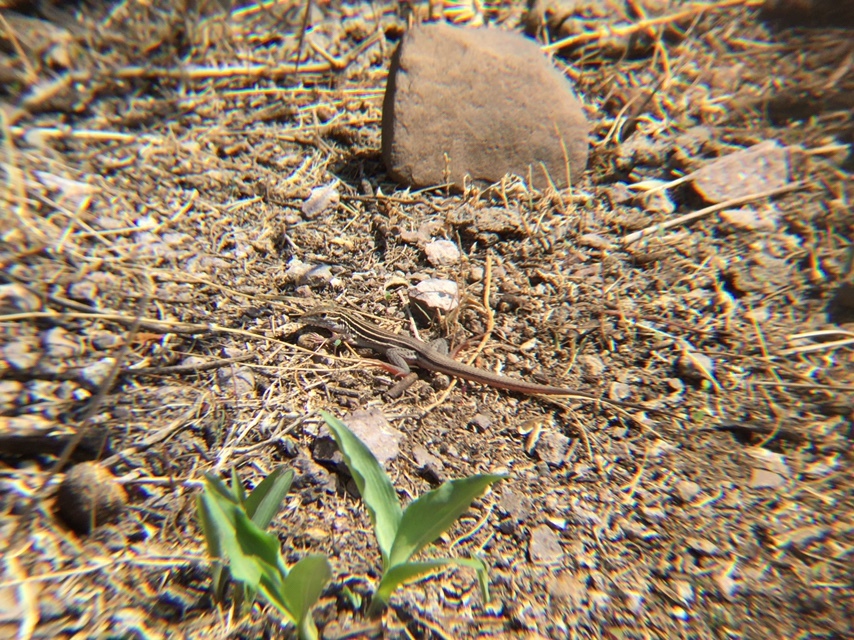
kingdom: Animalia
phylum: Chordata
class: Squamata
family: Teiidae
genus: Aspidoscelis
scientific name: Aspidoscelis gularis
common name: Eastern spotted whiptail
